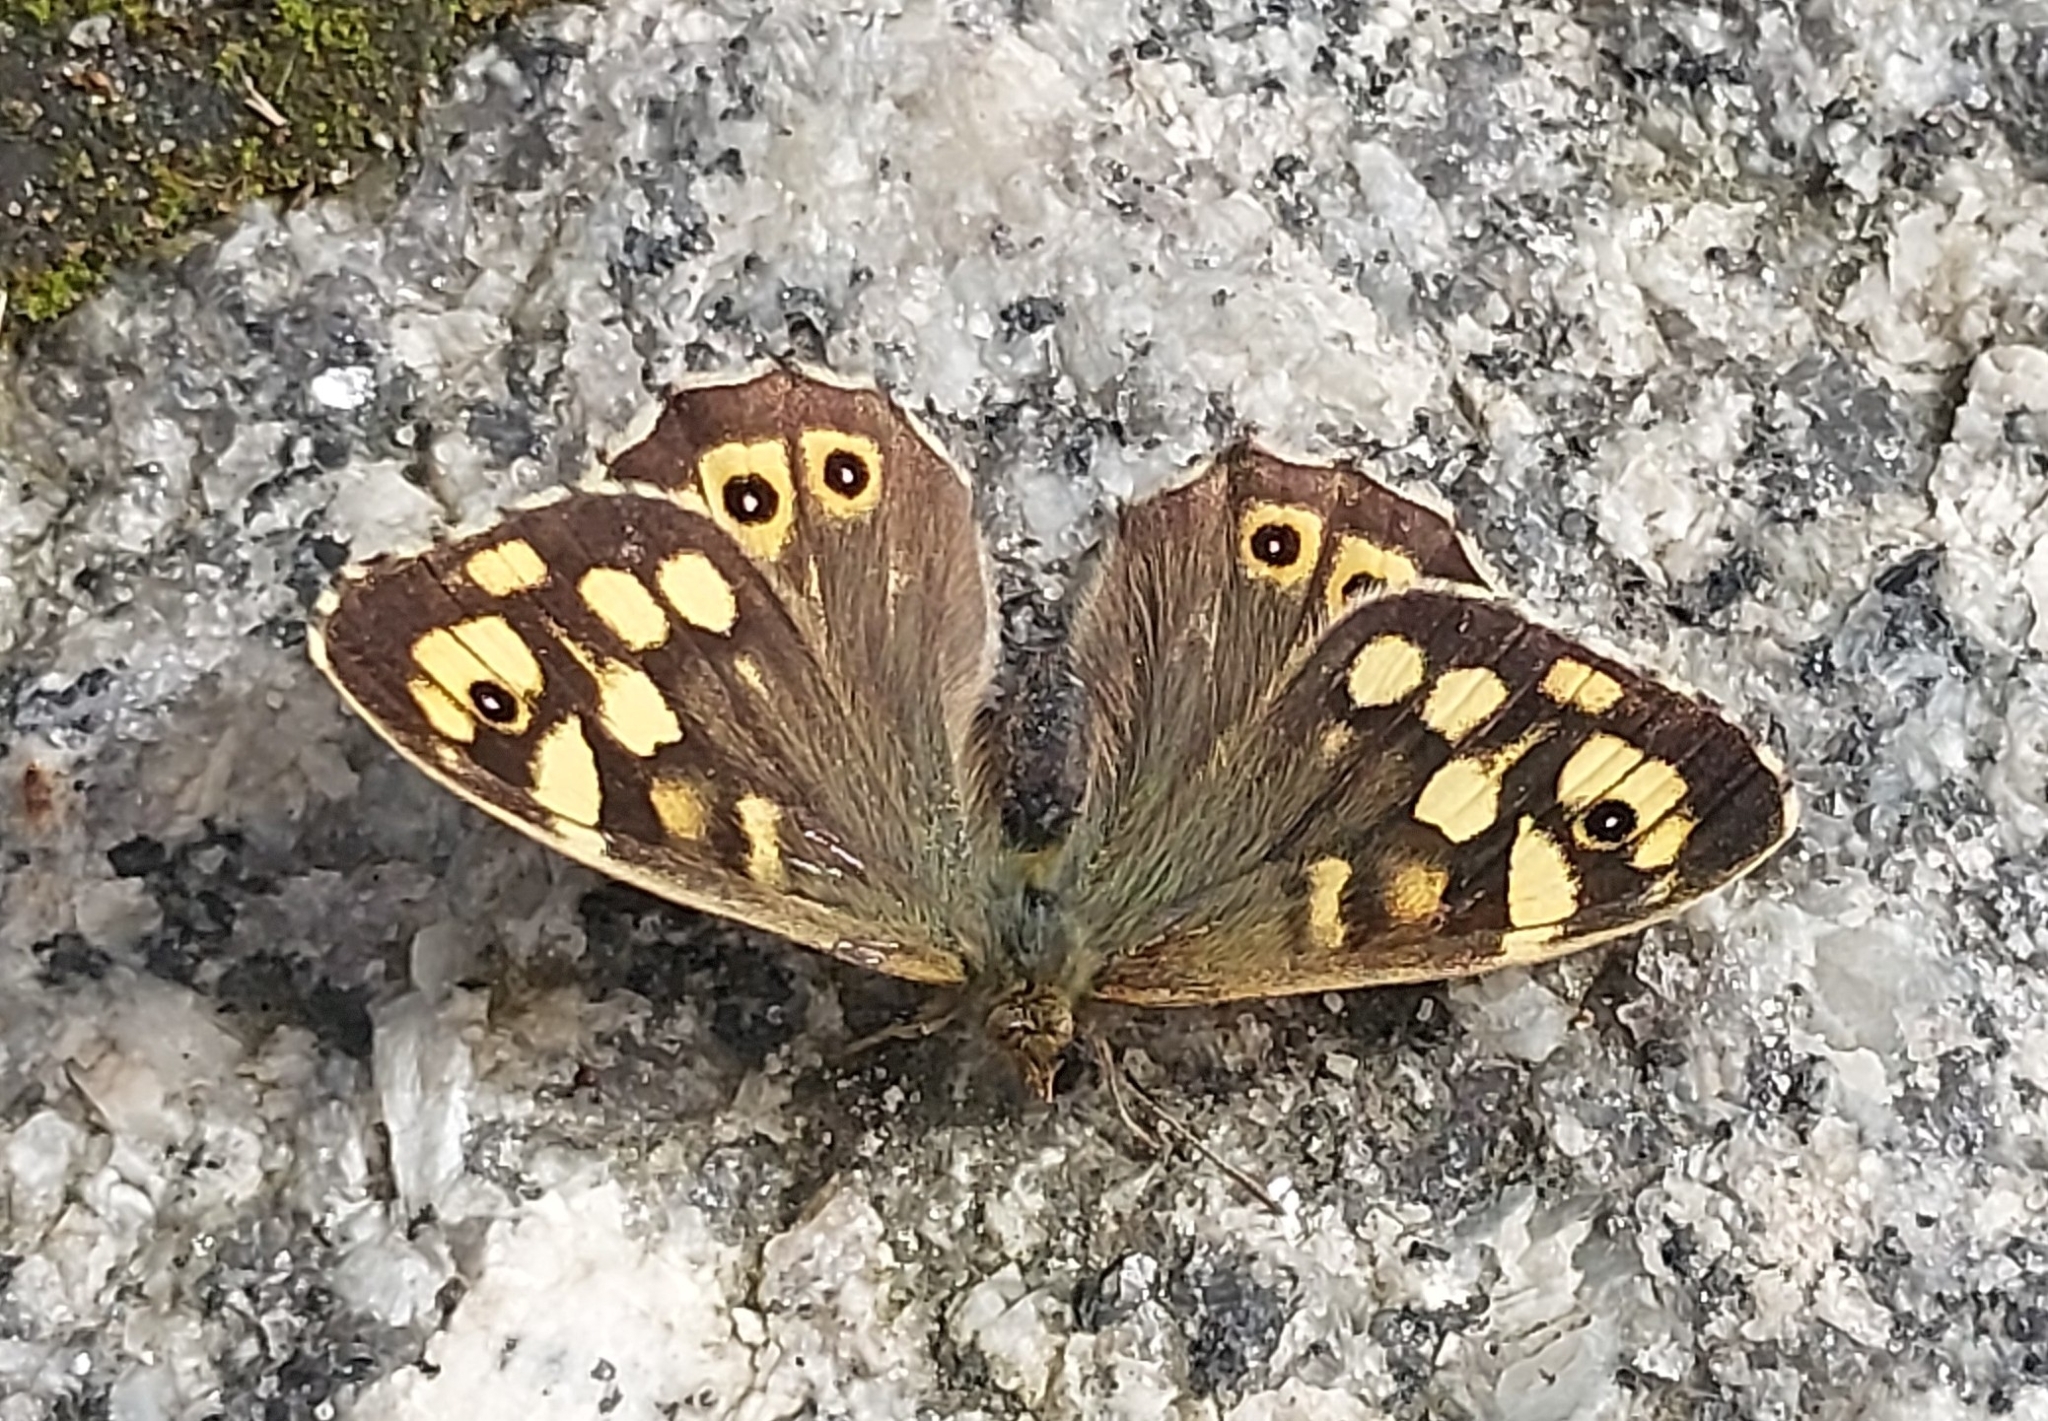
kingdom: Animalia
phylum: Arthropoda
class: Insecta
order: Lepidoptera
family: Nymphalidae
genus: Pararge
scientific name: Pararge aegeria
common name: Speckled wood
